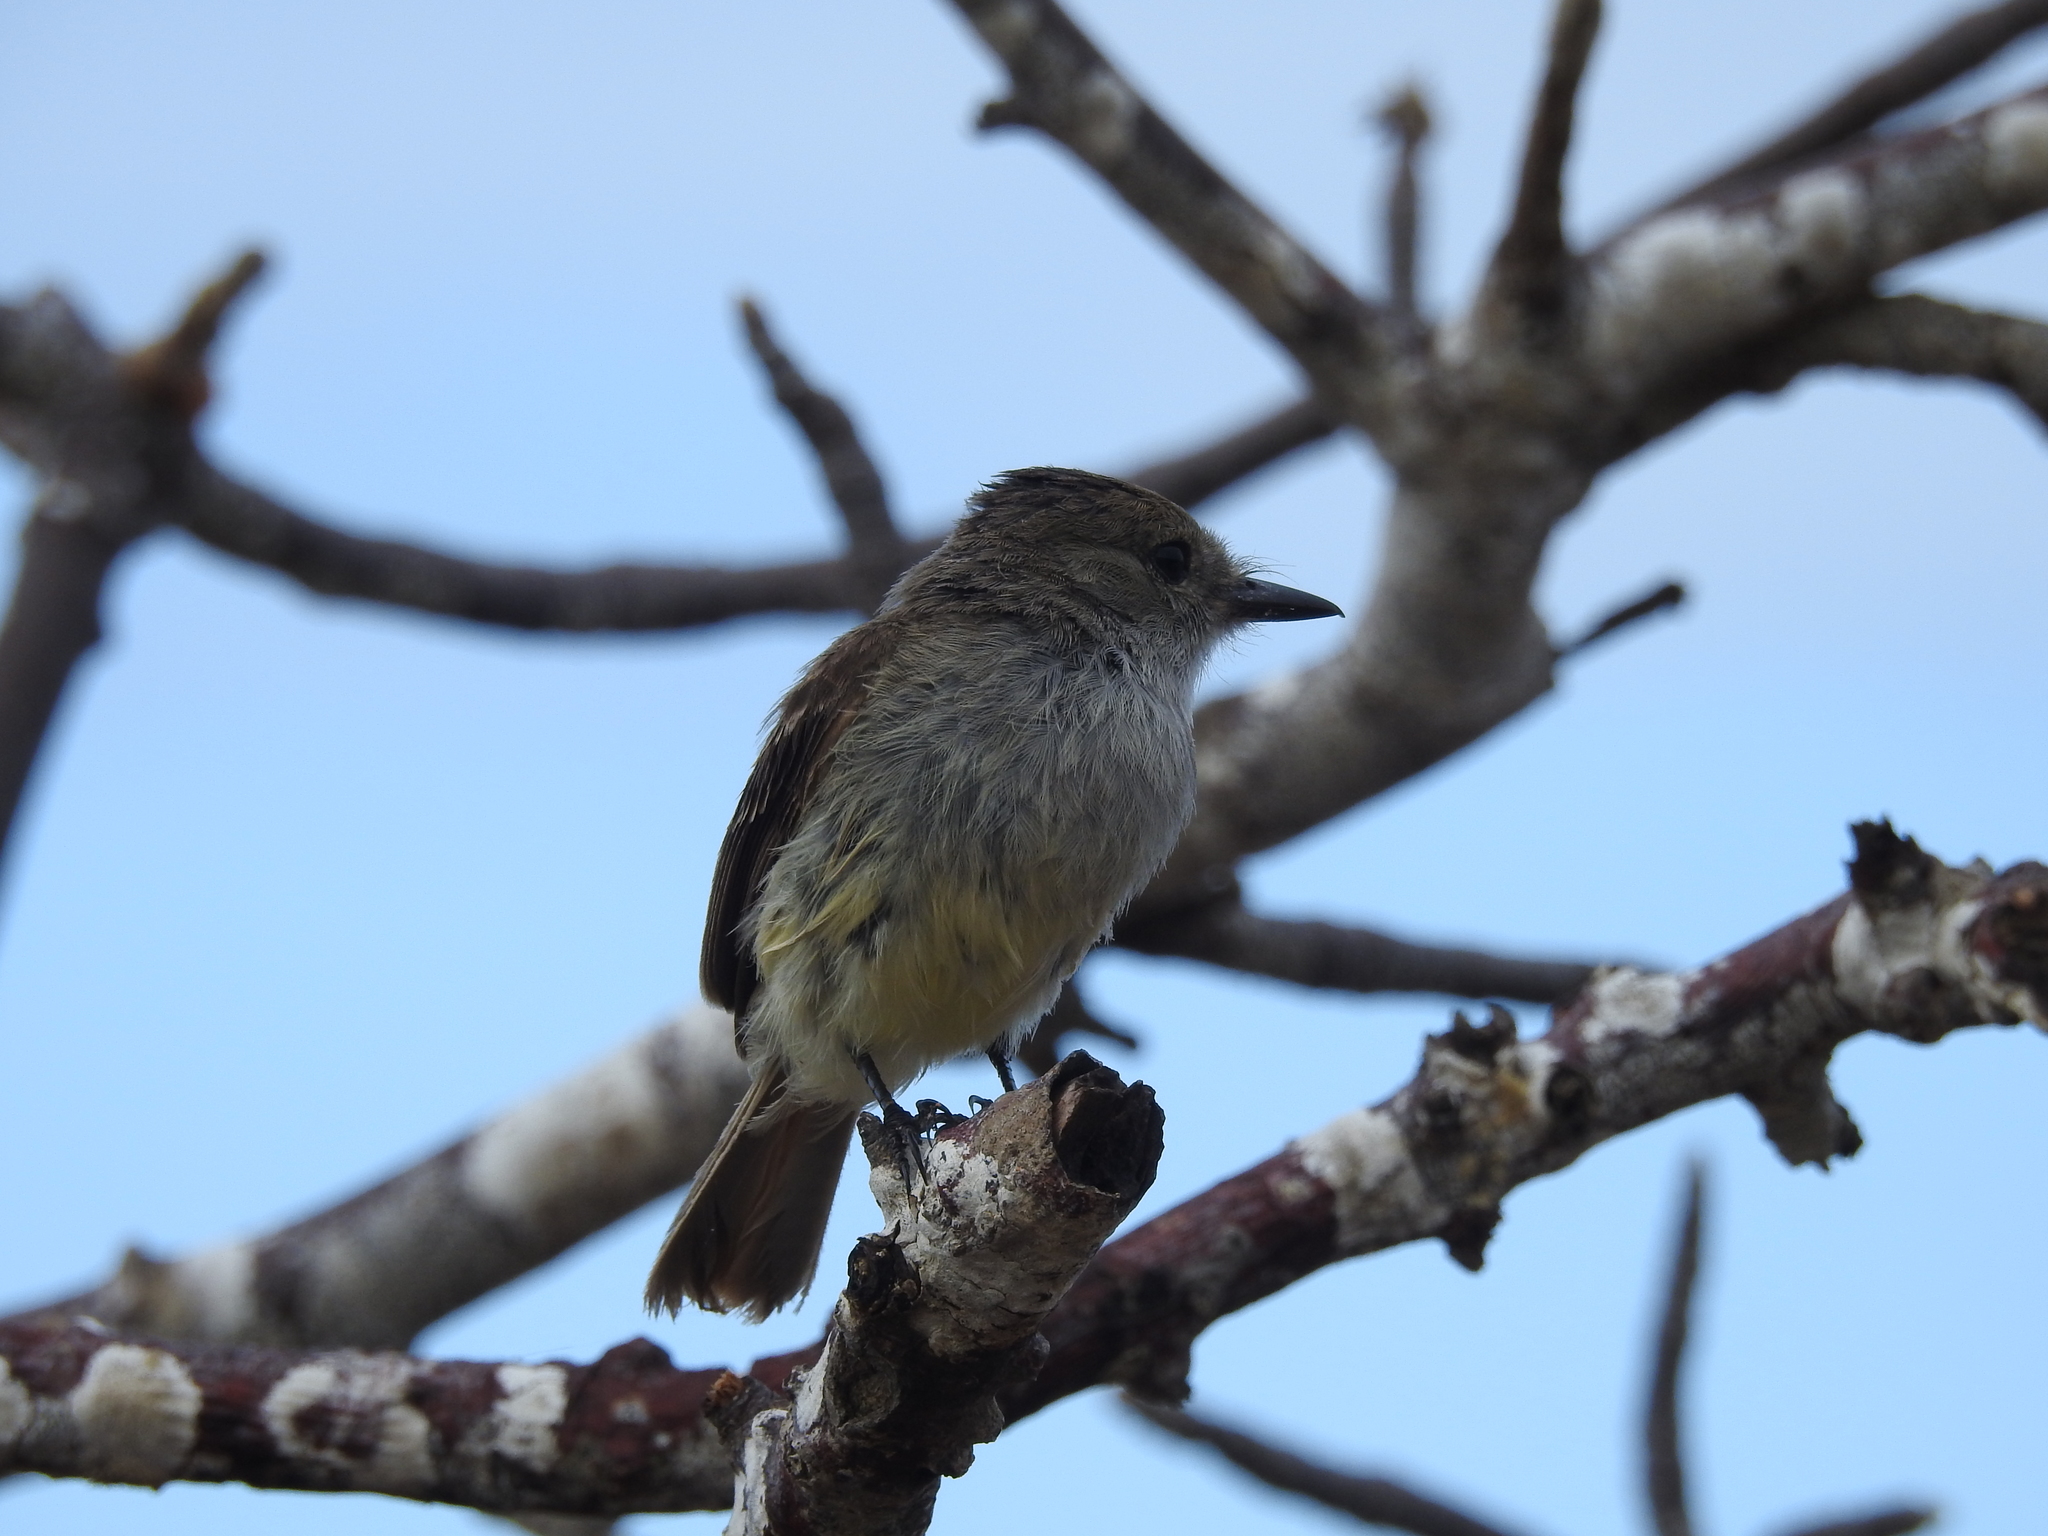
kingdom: Animalia
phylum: Chordata
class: Aves
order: Passeriformes
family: Tyrannidae
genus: Myiarchus
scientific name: Myiarchus magnirostris
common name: Galapagos flycatcher
